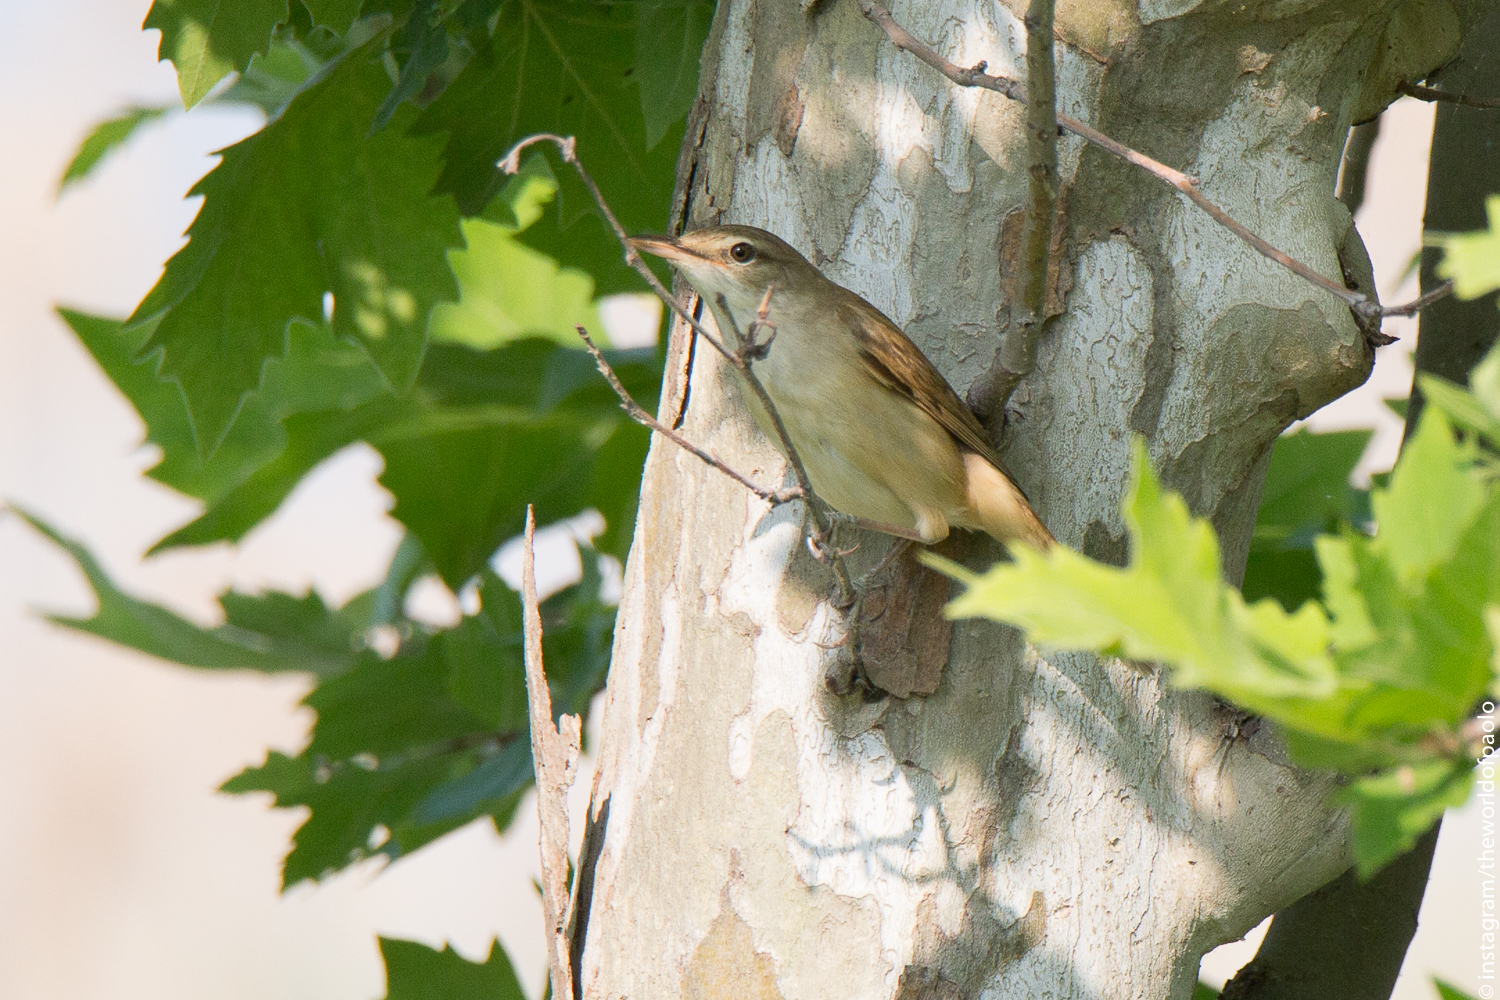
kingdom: Animalia
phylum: Chordata
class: Aves
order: Passeriformes
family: Acrocephalidae
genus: Acrocephalus
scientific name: Acrocephalus arundinaceus
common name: Great reed warbler
